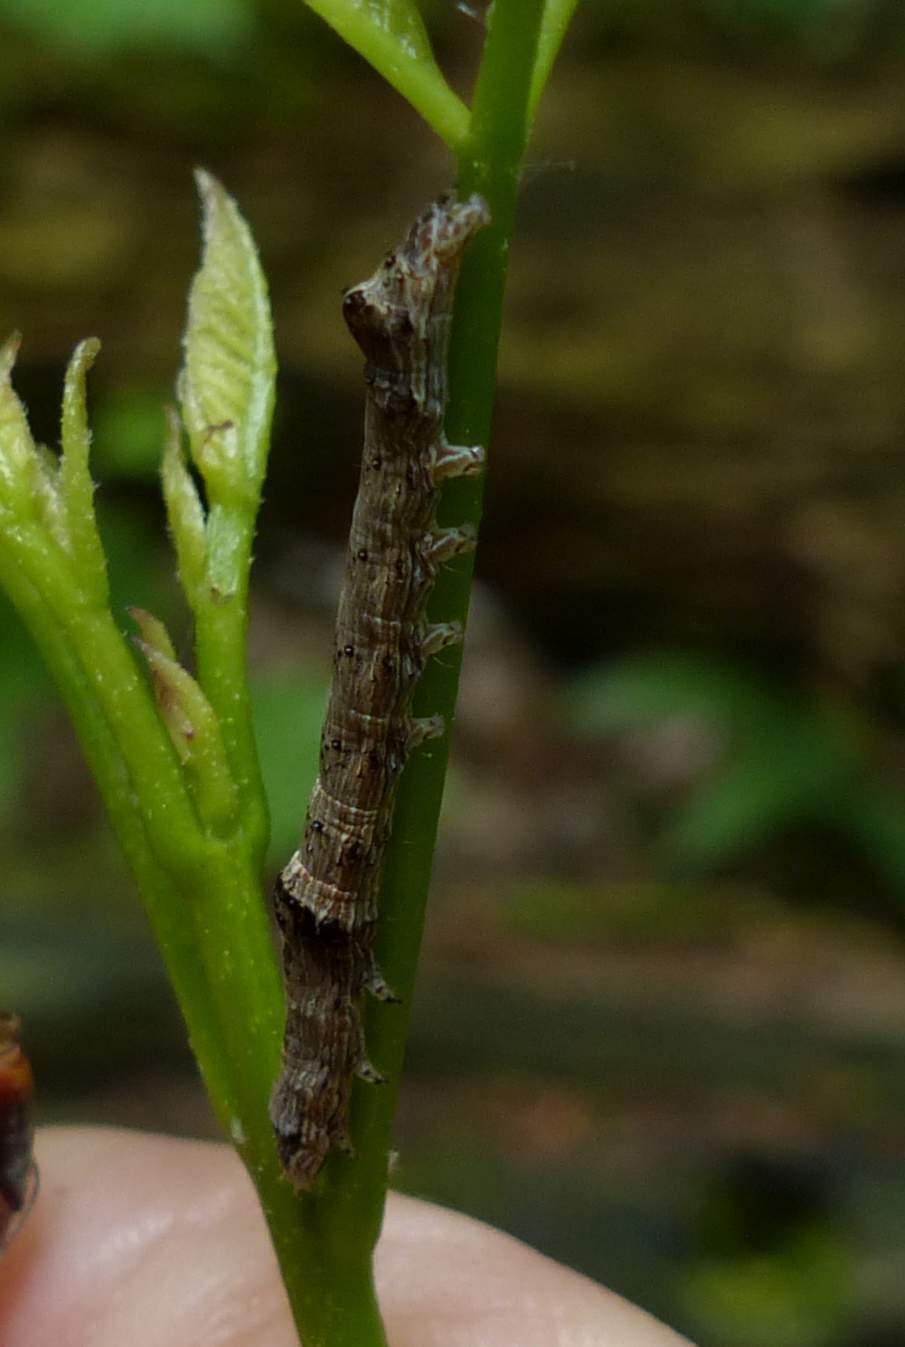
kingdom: Animalia
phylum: Arthropoda
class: Insecta
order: Lepidoptera
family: Noctuidae
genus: Sympistis
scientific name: Sympistis chionanthi
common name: Fringe-tree sallow
